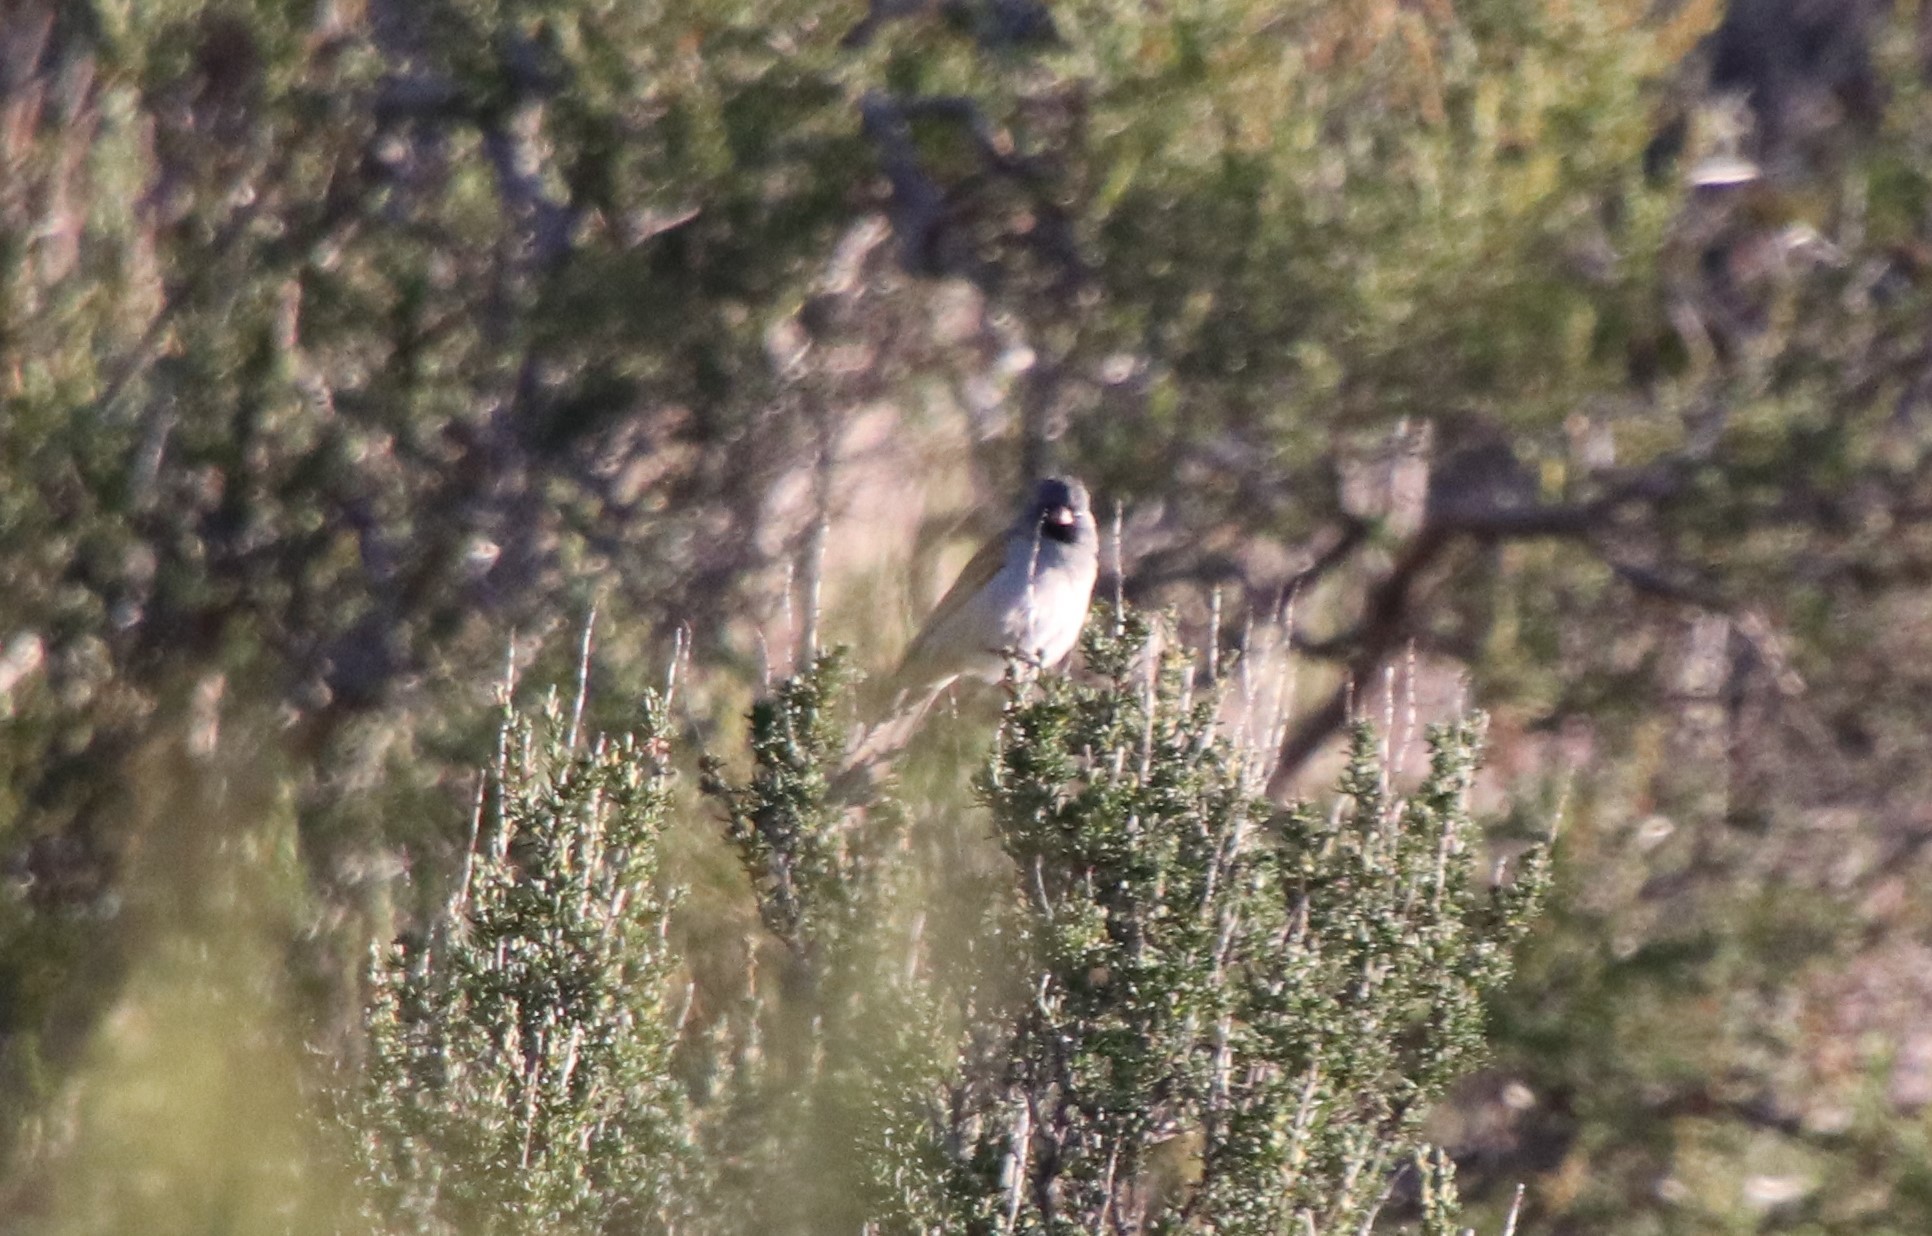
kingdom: Animalia
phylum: Chordata
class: Aves
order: Passeriformes
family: Passerellidae
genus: Spizella
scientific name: Spizella atrogularis
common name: Black-chinned sparrow
